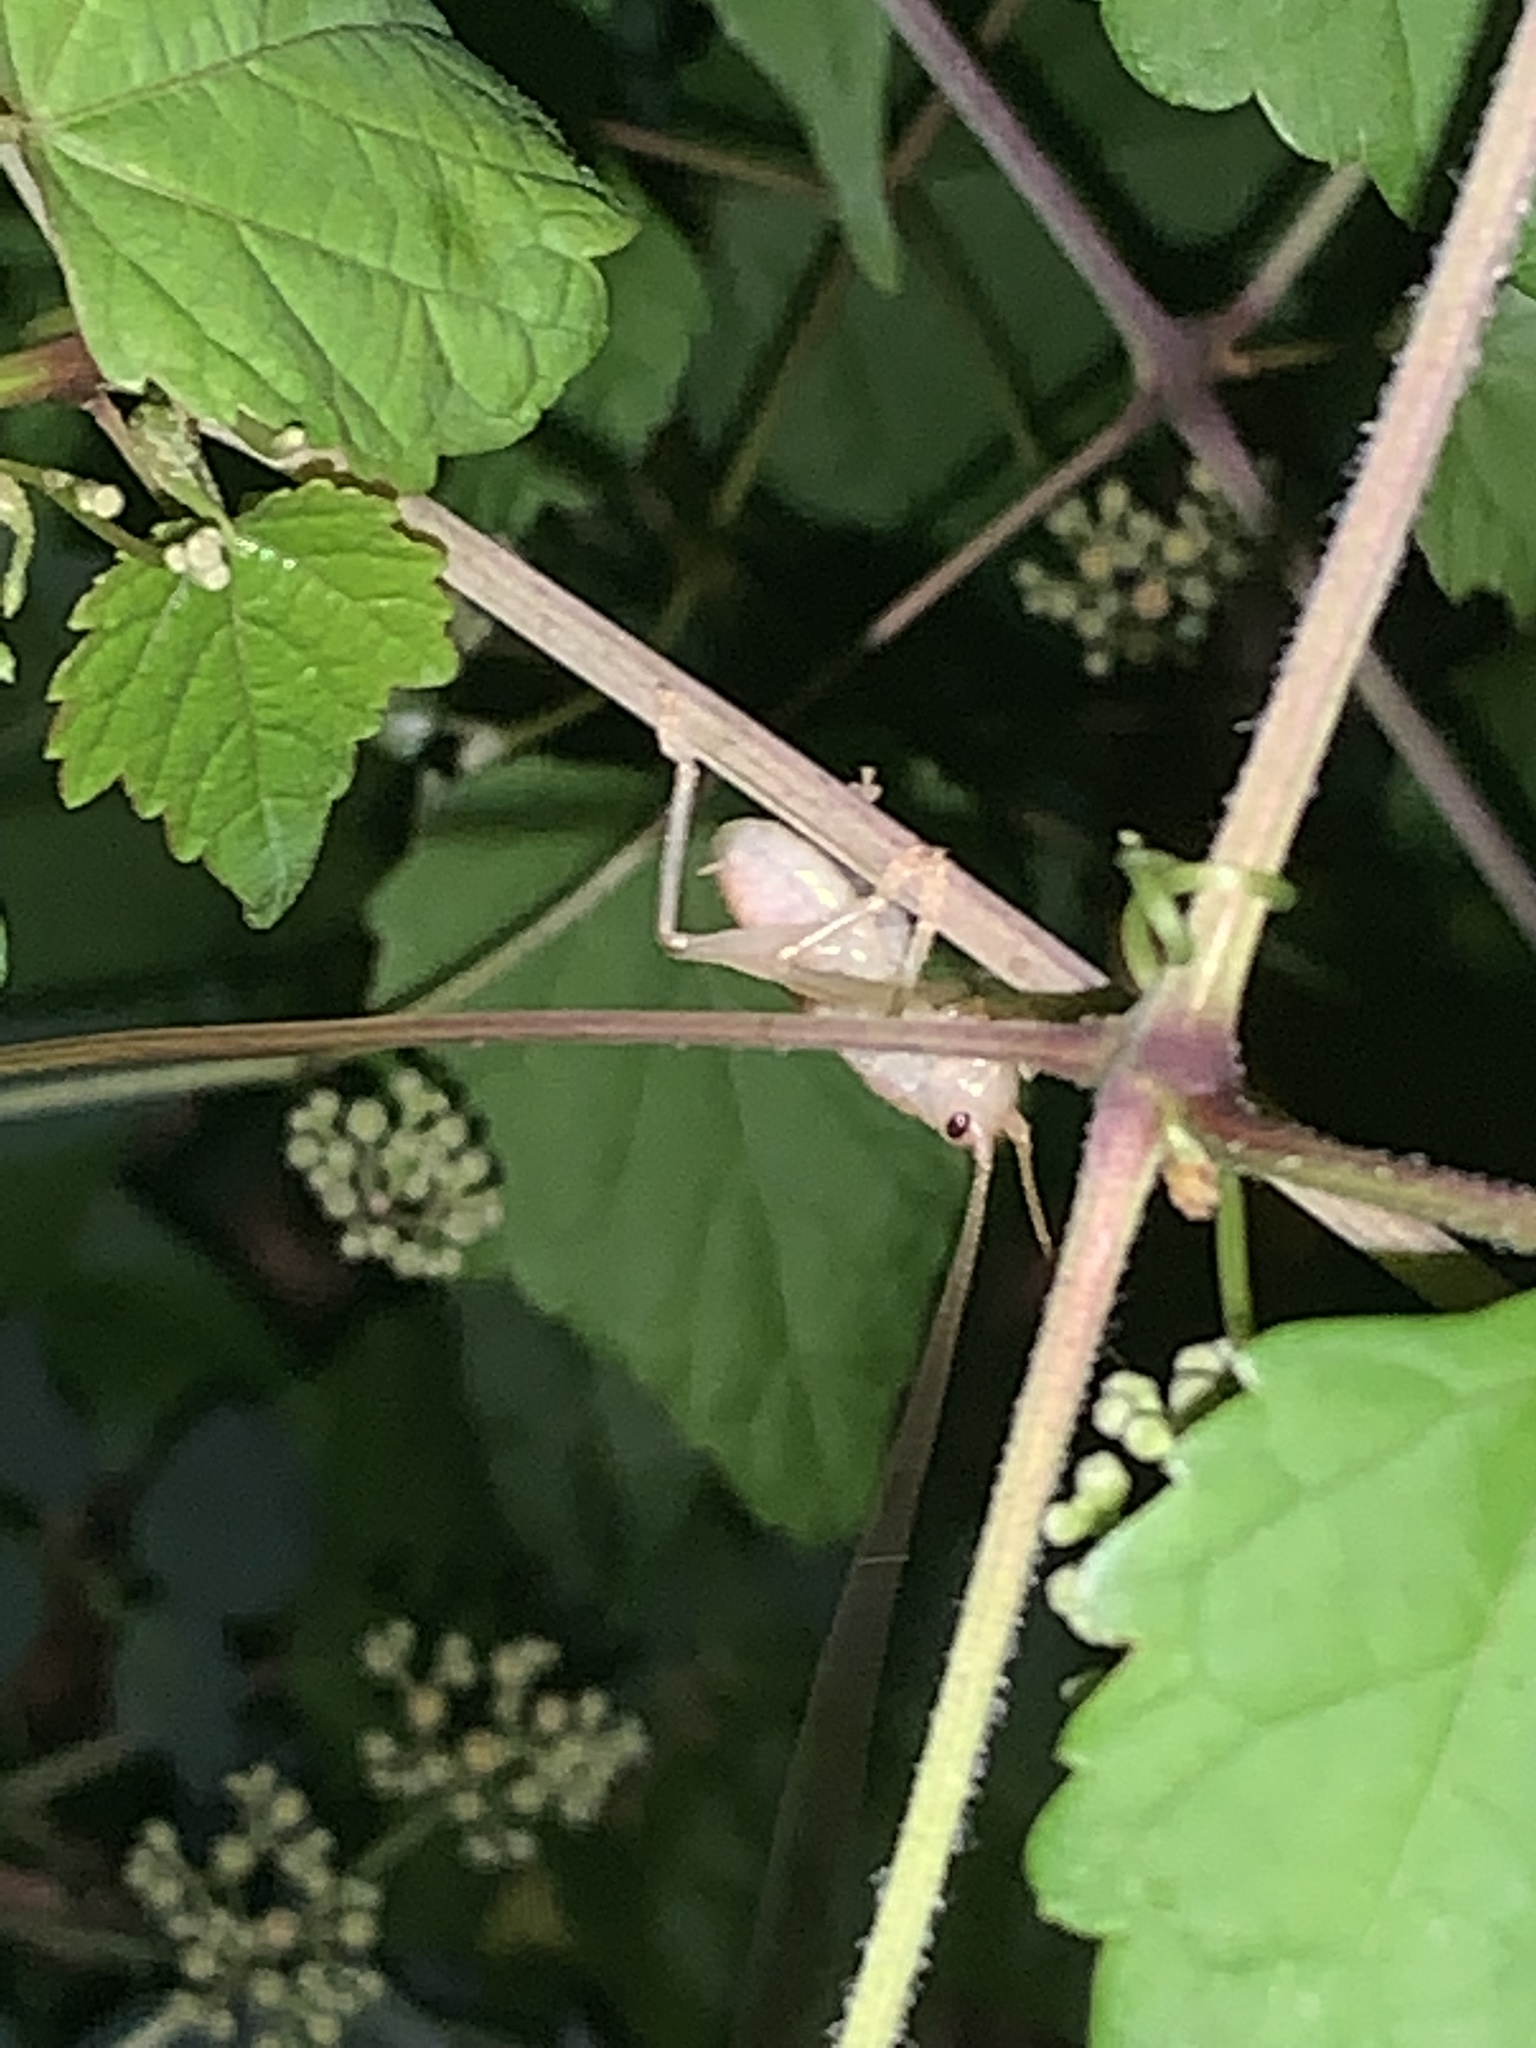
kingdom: Animalia
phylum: Arthropoda
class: Insecta
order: Orthoptera
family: Gryllacrididae
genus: Camptonotus
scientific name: Camptonotus carolinensis
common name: Carolina leaf-roller
